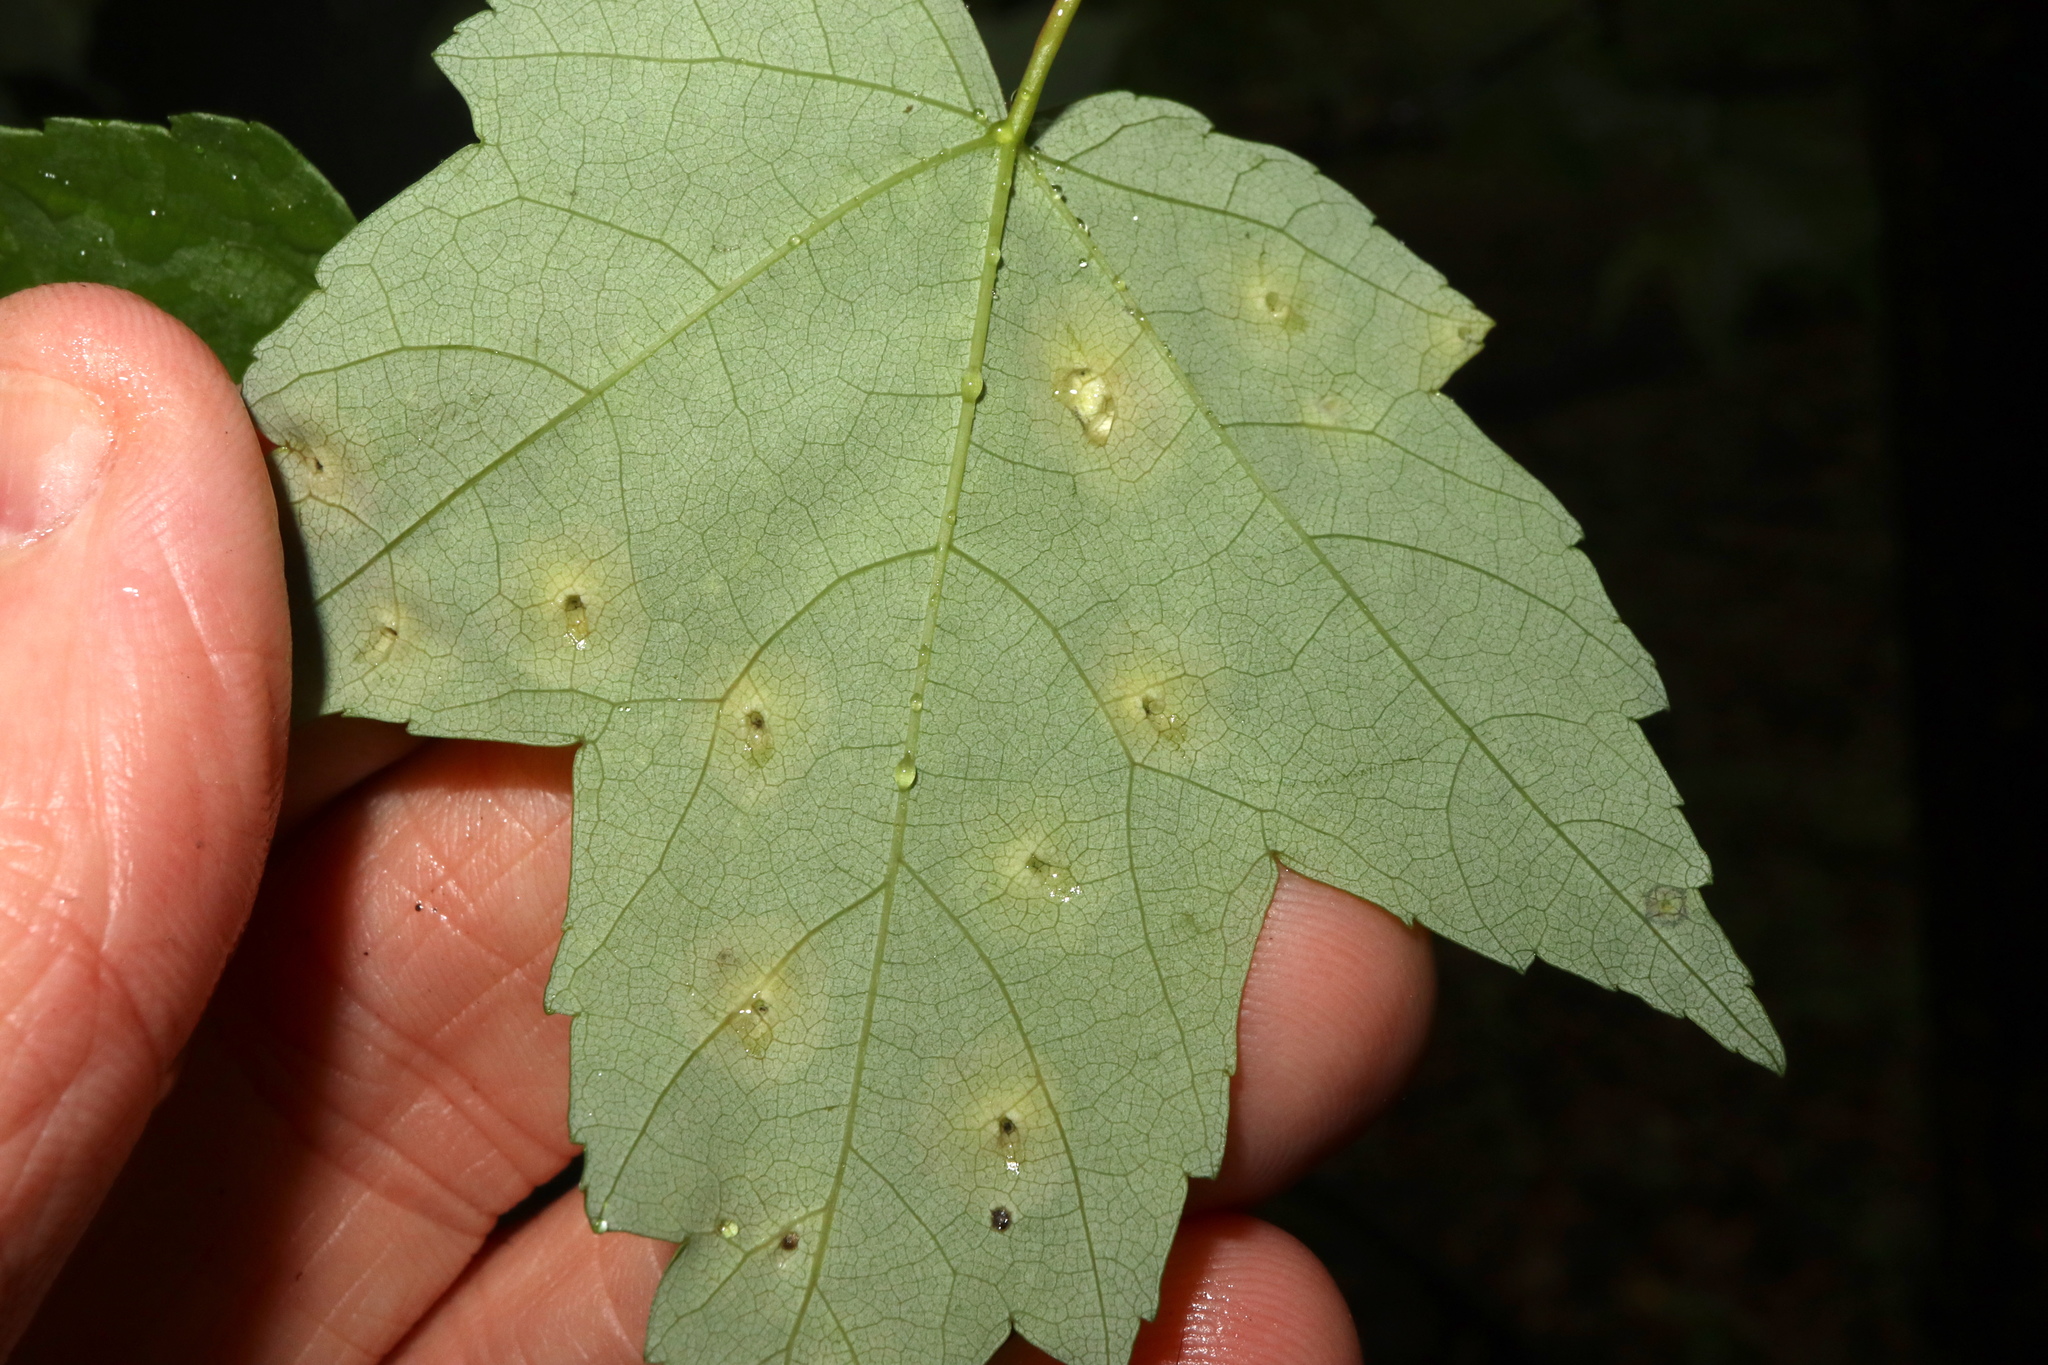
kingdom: Animalia
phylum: Arthropoda
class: Insecta
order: Diptera
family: Cecidomyiidae
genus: Acericecis
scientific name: Acericecis ocellaris
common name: Ocellate gall midge
